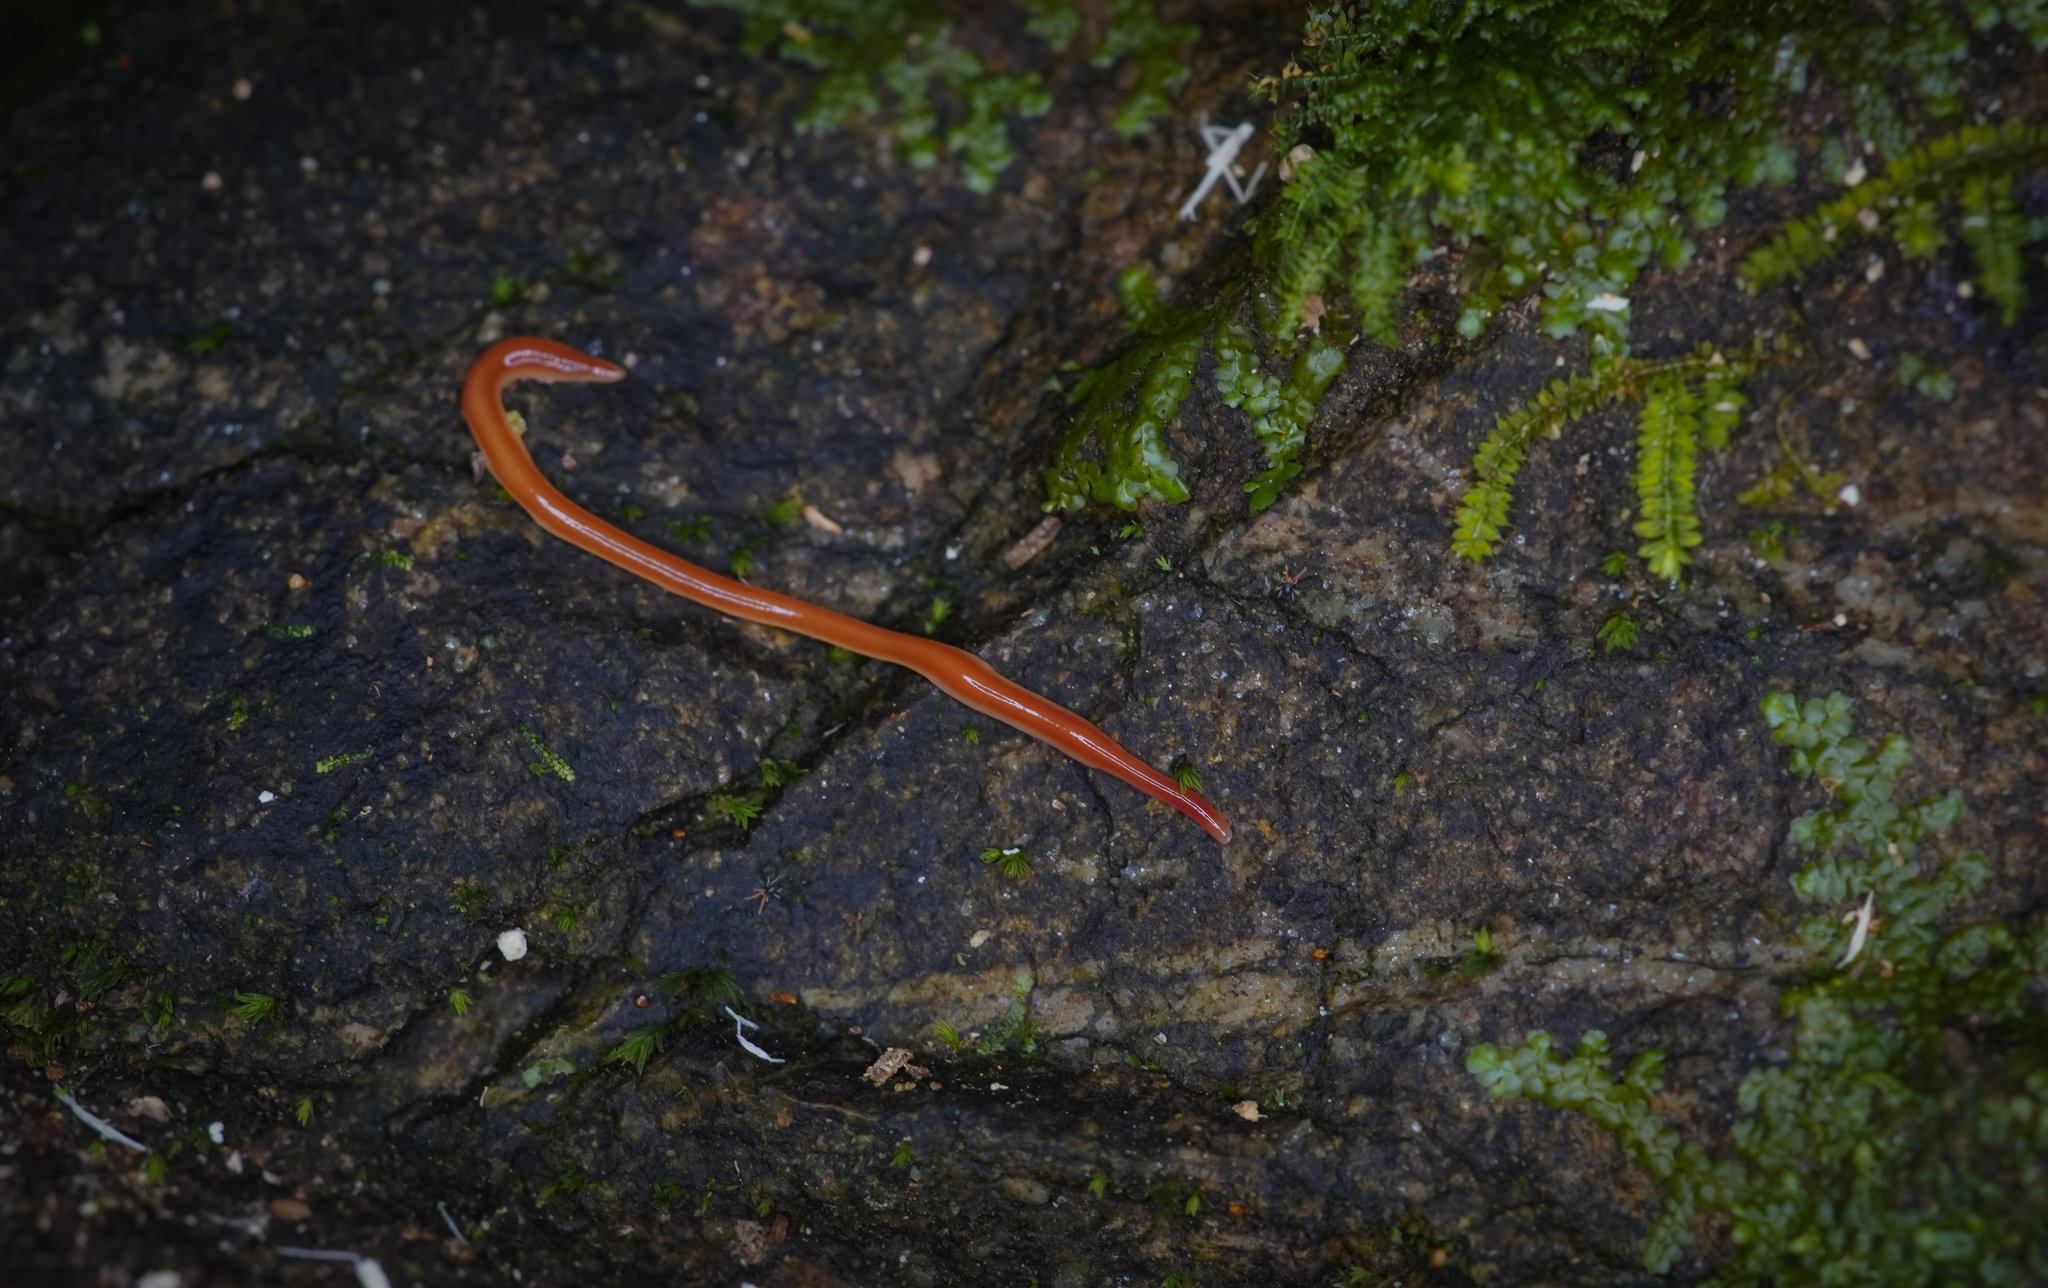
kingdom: Animalia
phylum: Platyhelminthes
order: Tricladida
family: Geoplanidae
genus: Arthurdendyus
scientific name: Arthurdendyus testaceus
